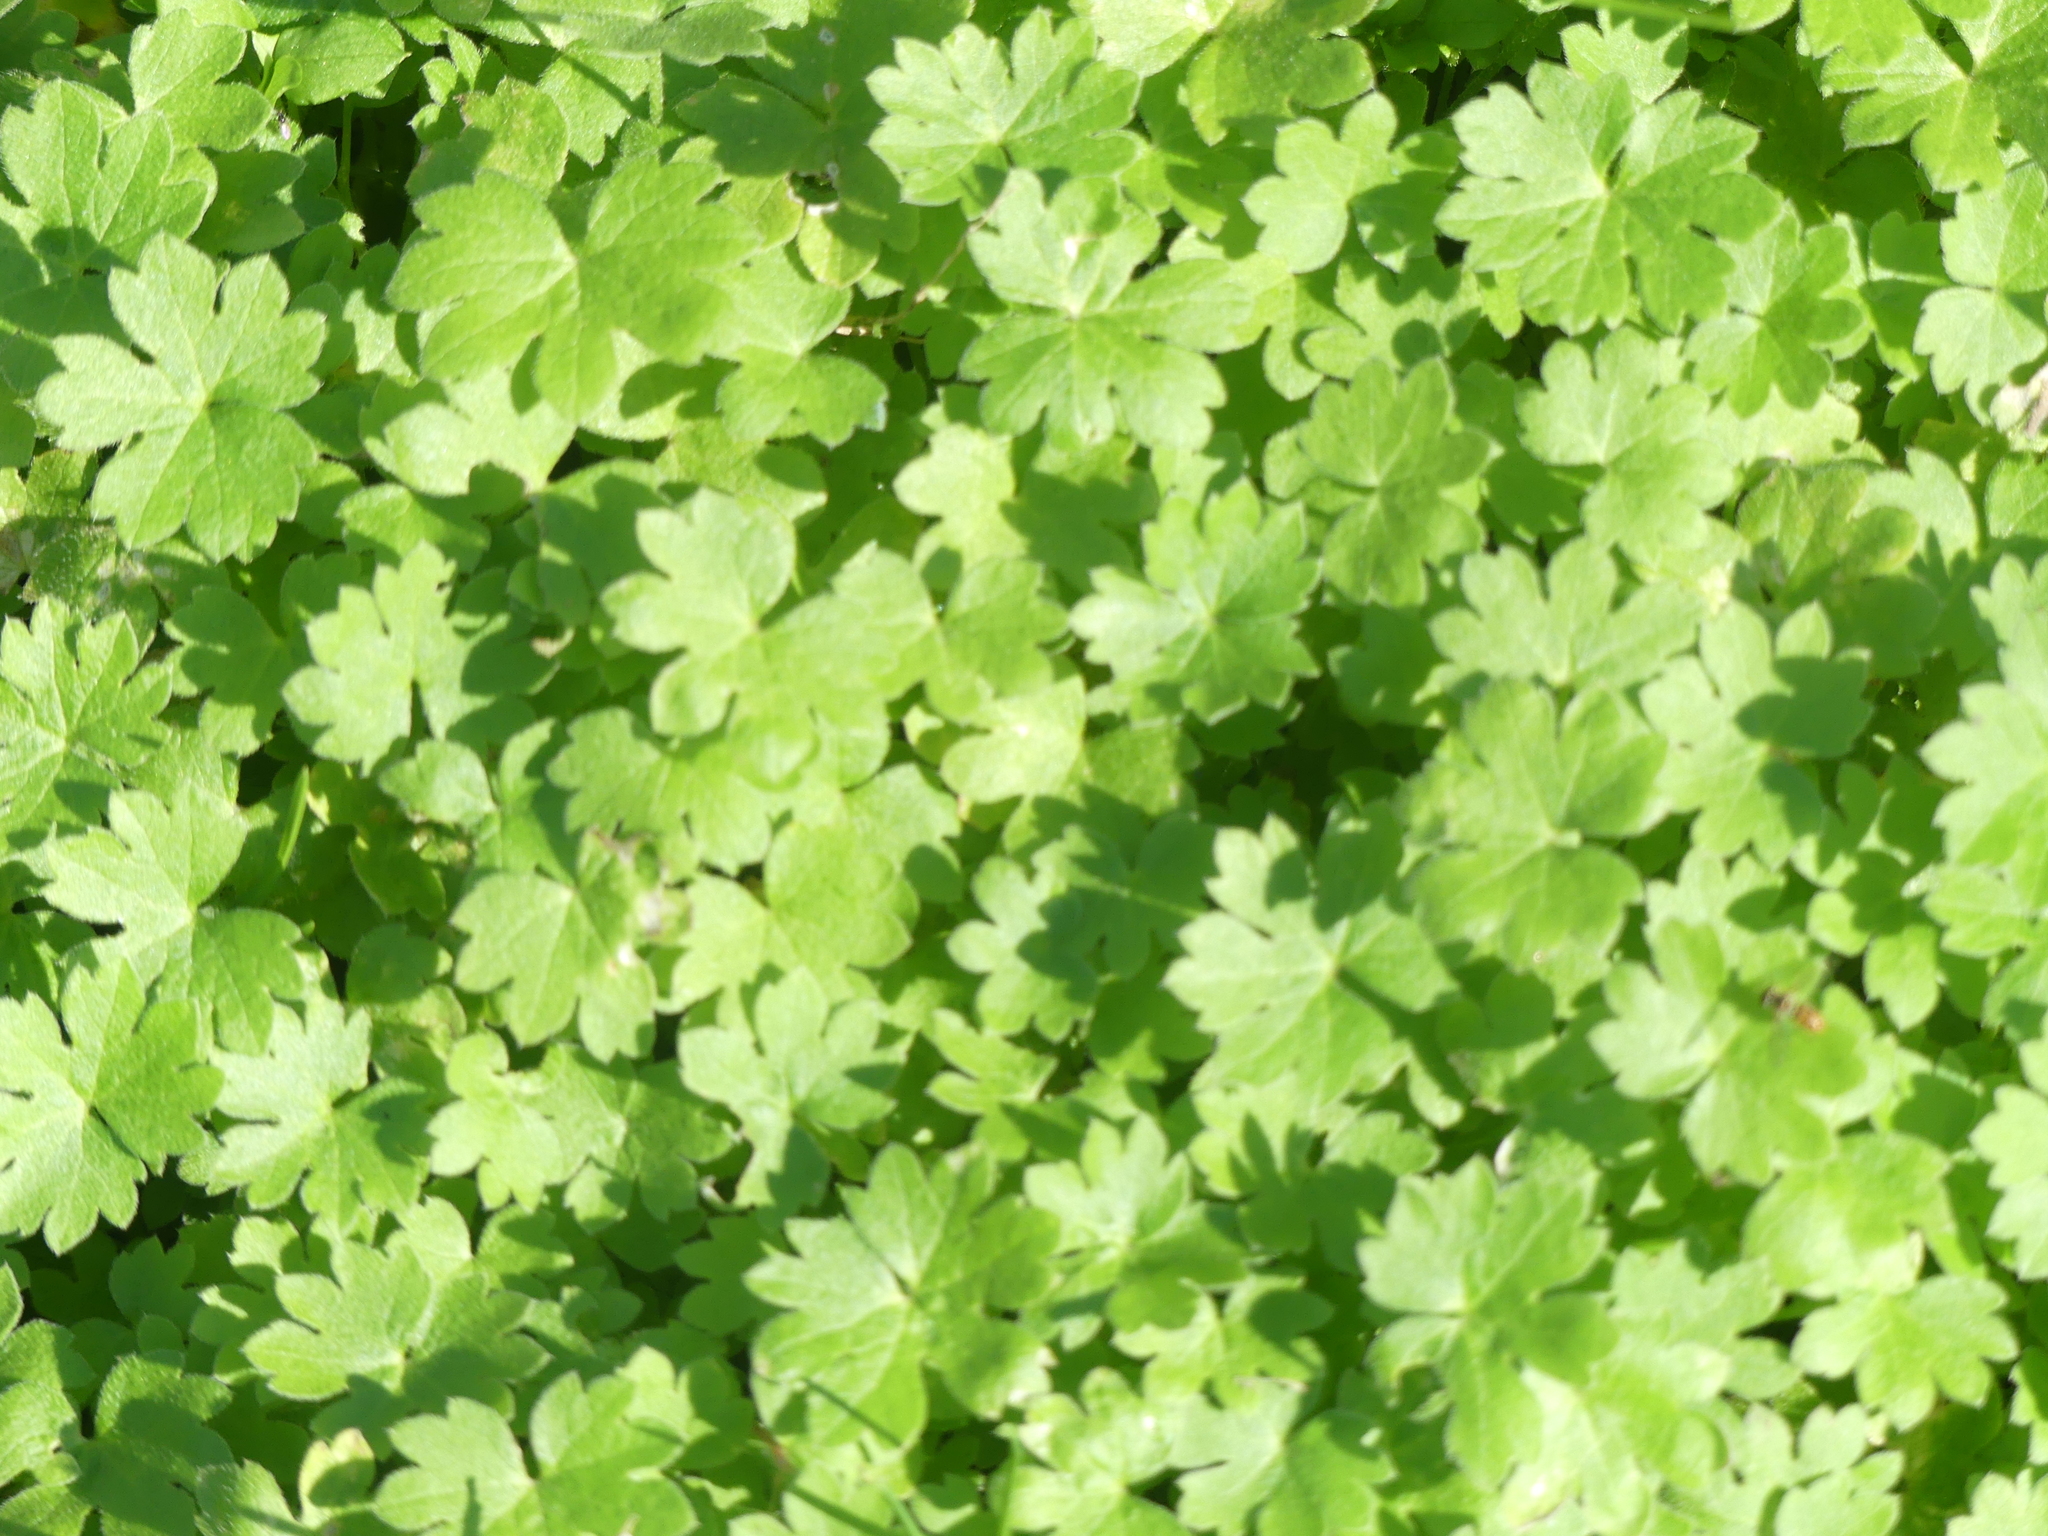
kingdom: Plantae
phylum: Tracheophyta
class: Magnoliopsida
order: Apiales
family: Apiaceae
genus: Bowlesia
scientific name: Bowlesia incana
